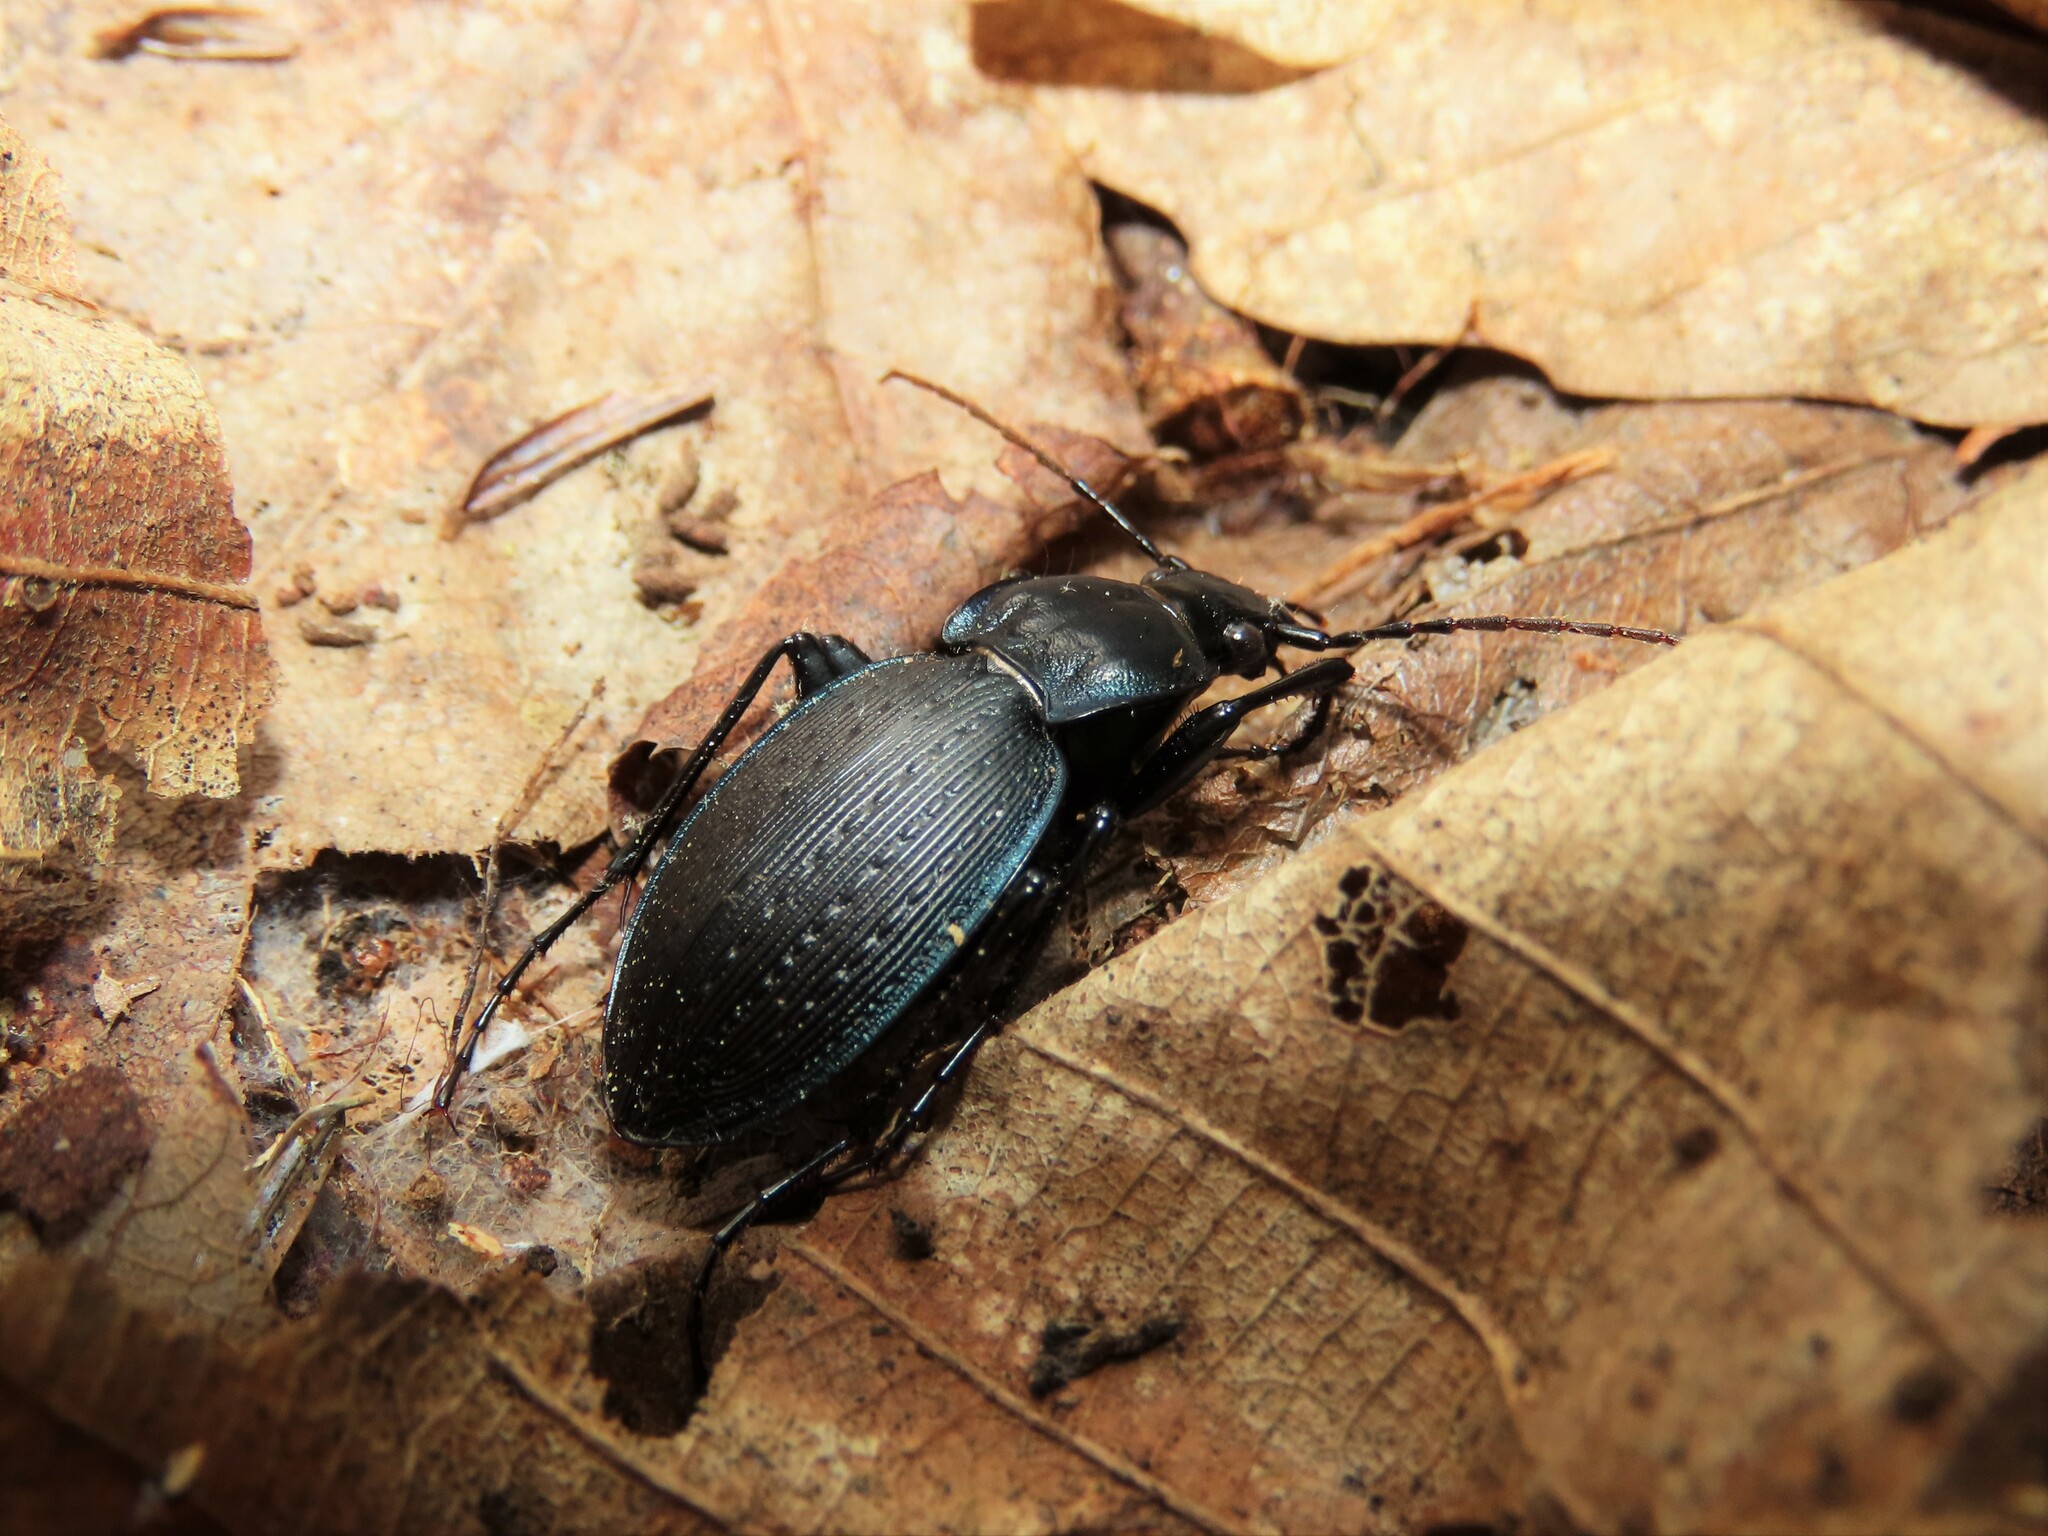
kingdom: Animalia
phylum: Arthropoda
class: Insecta
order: Coleoptera
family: Carabidae
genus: Carabus
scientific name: Carabus goryi
